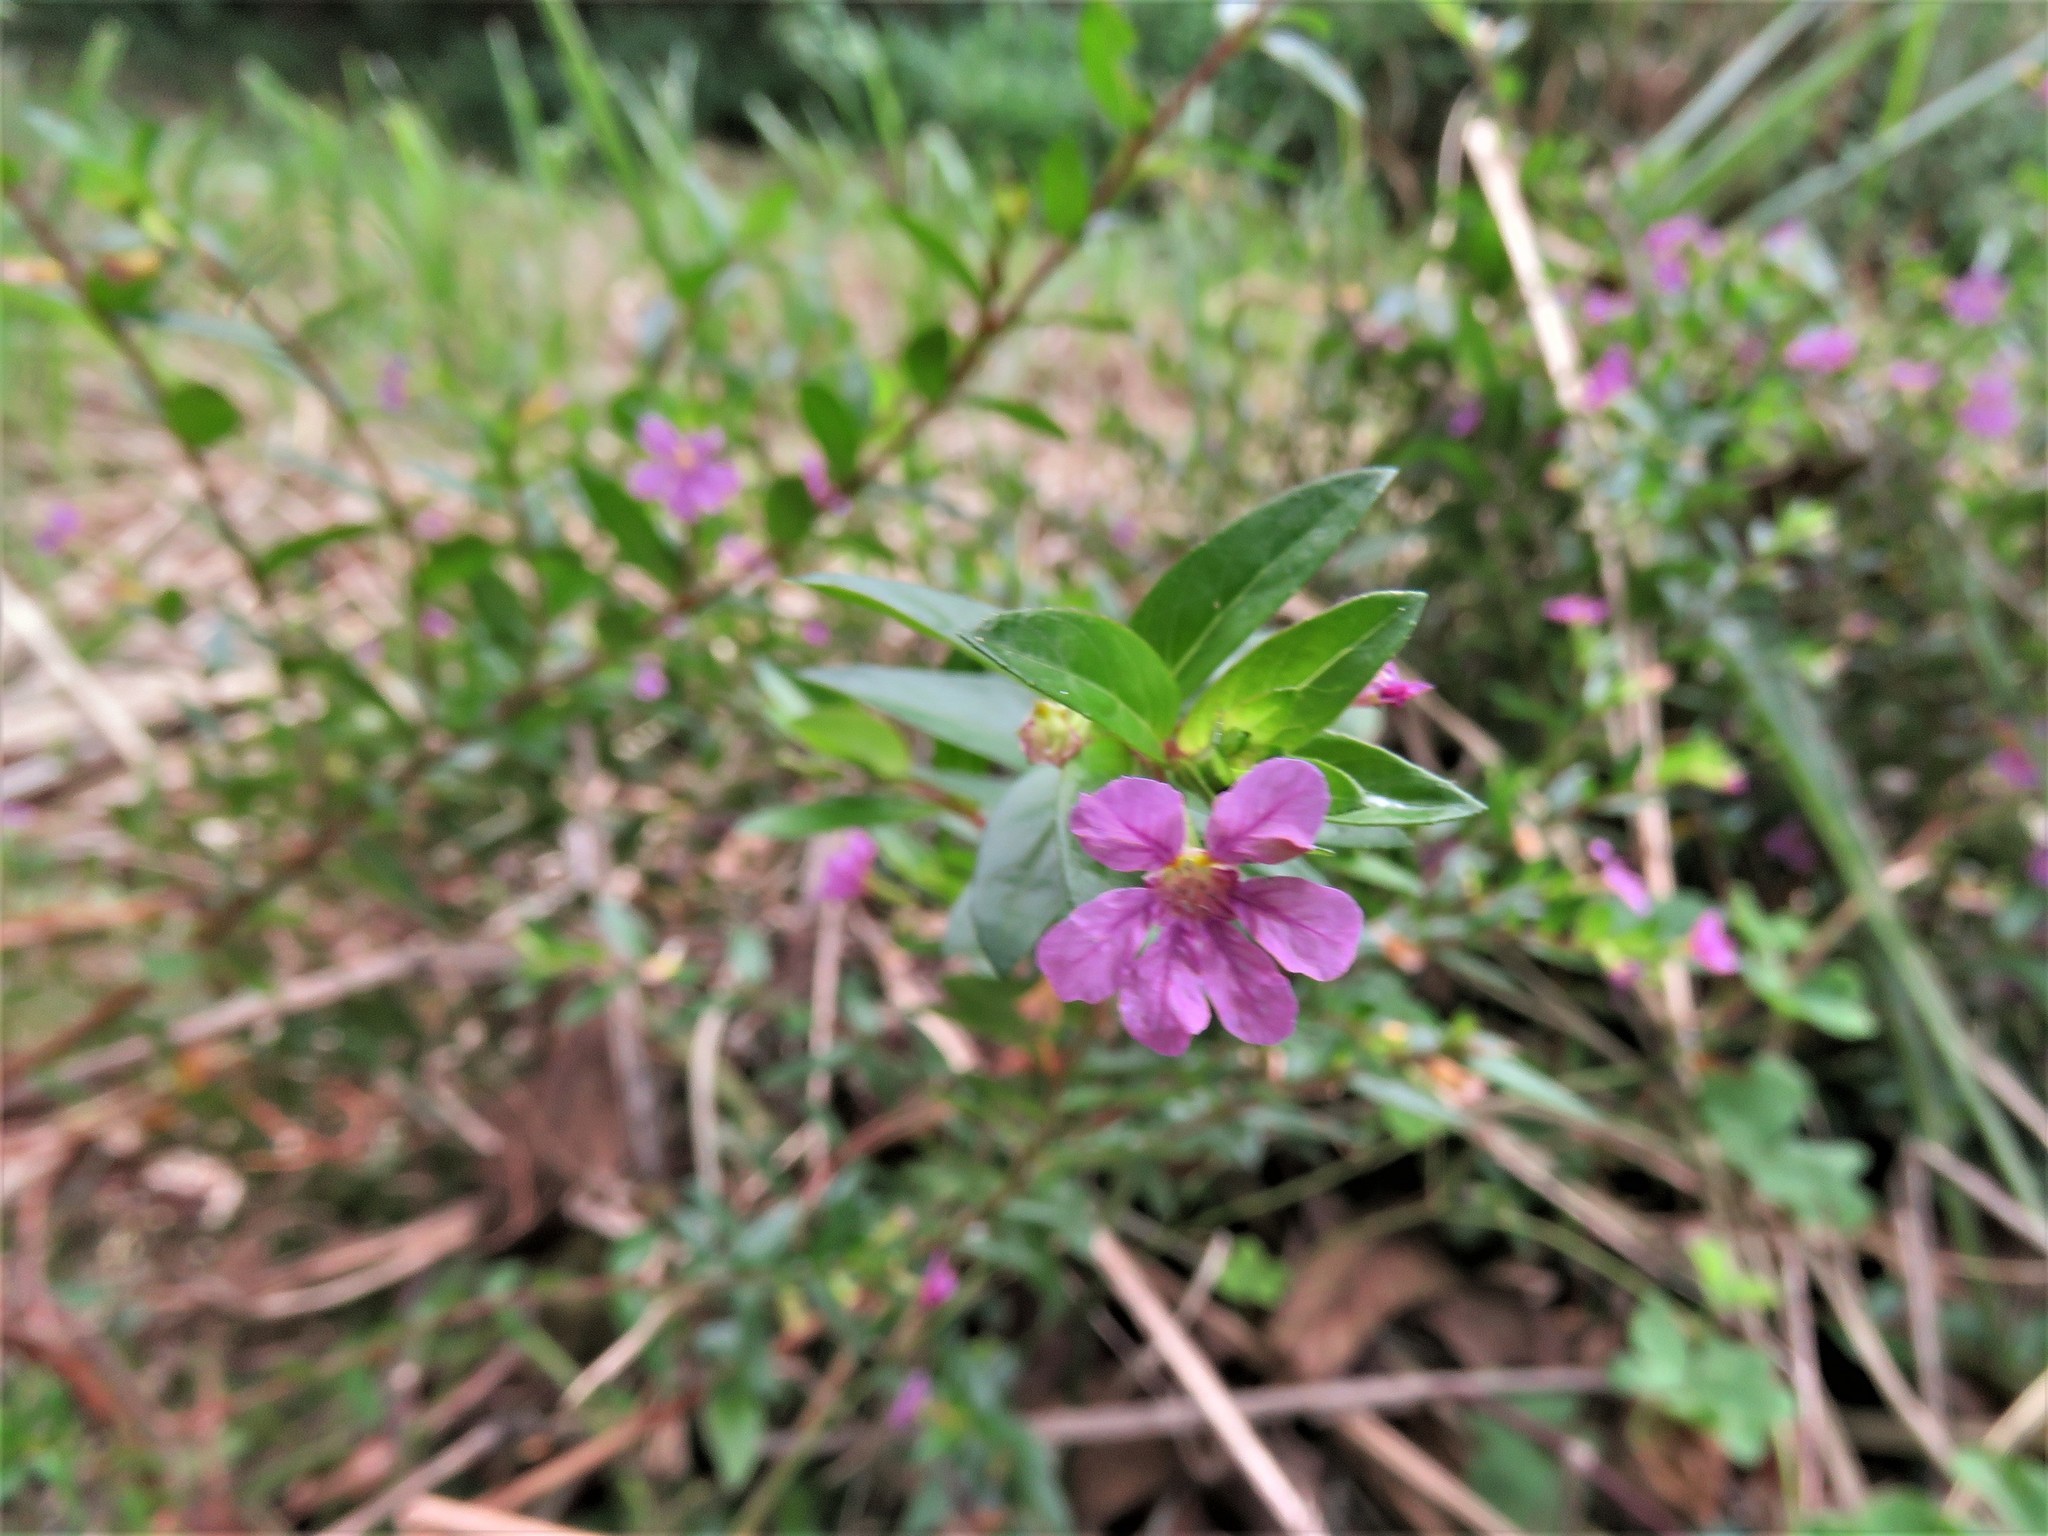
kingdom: Plantae
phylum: Tracheophyta
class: Magnoliopsida
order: Myrtales
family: Lythraceae
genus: Cuphea
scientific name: Cuphea hyssopifolia
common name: False heather
